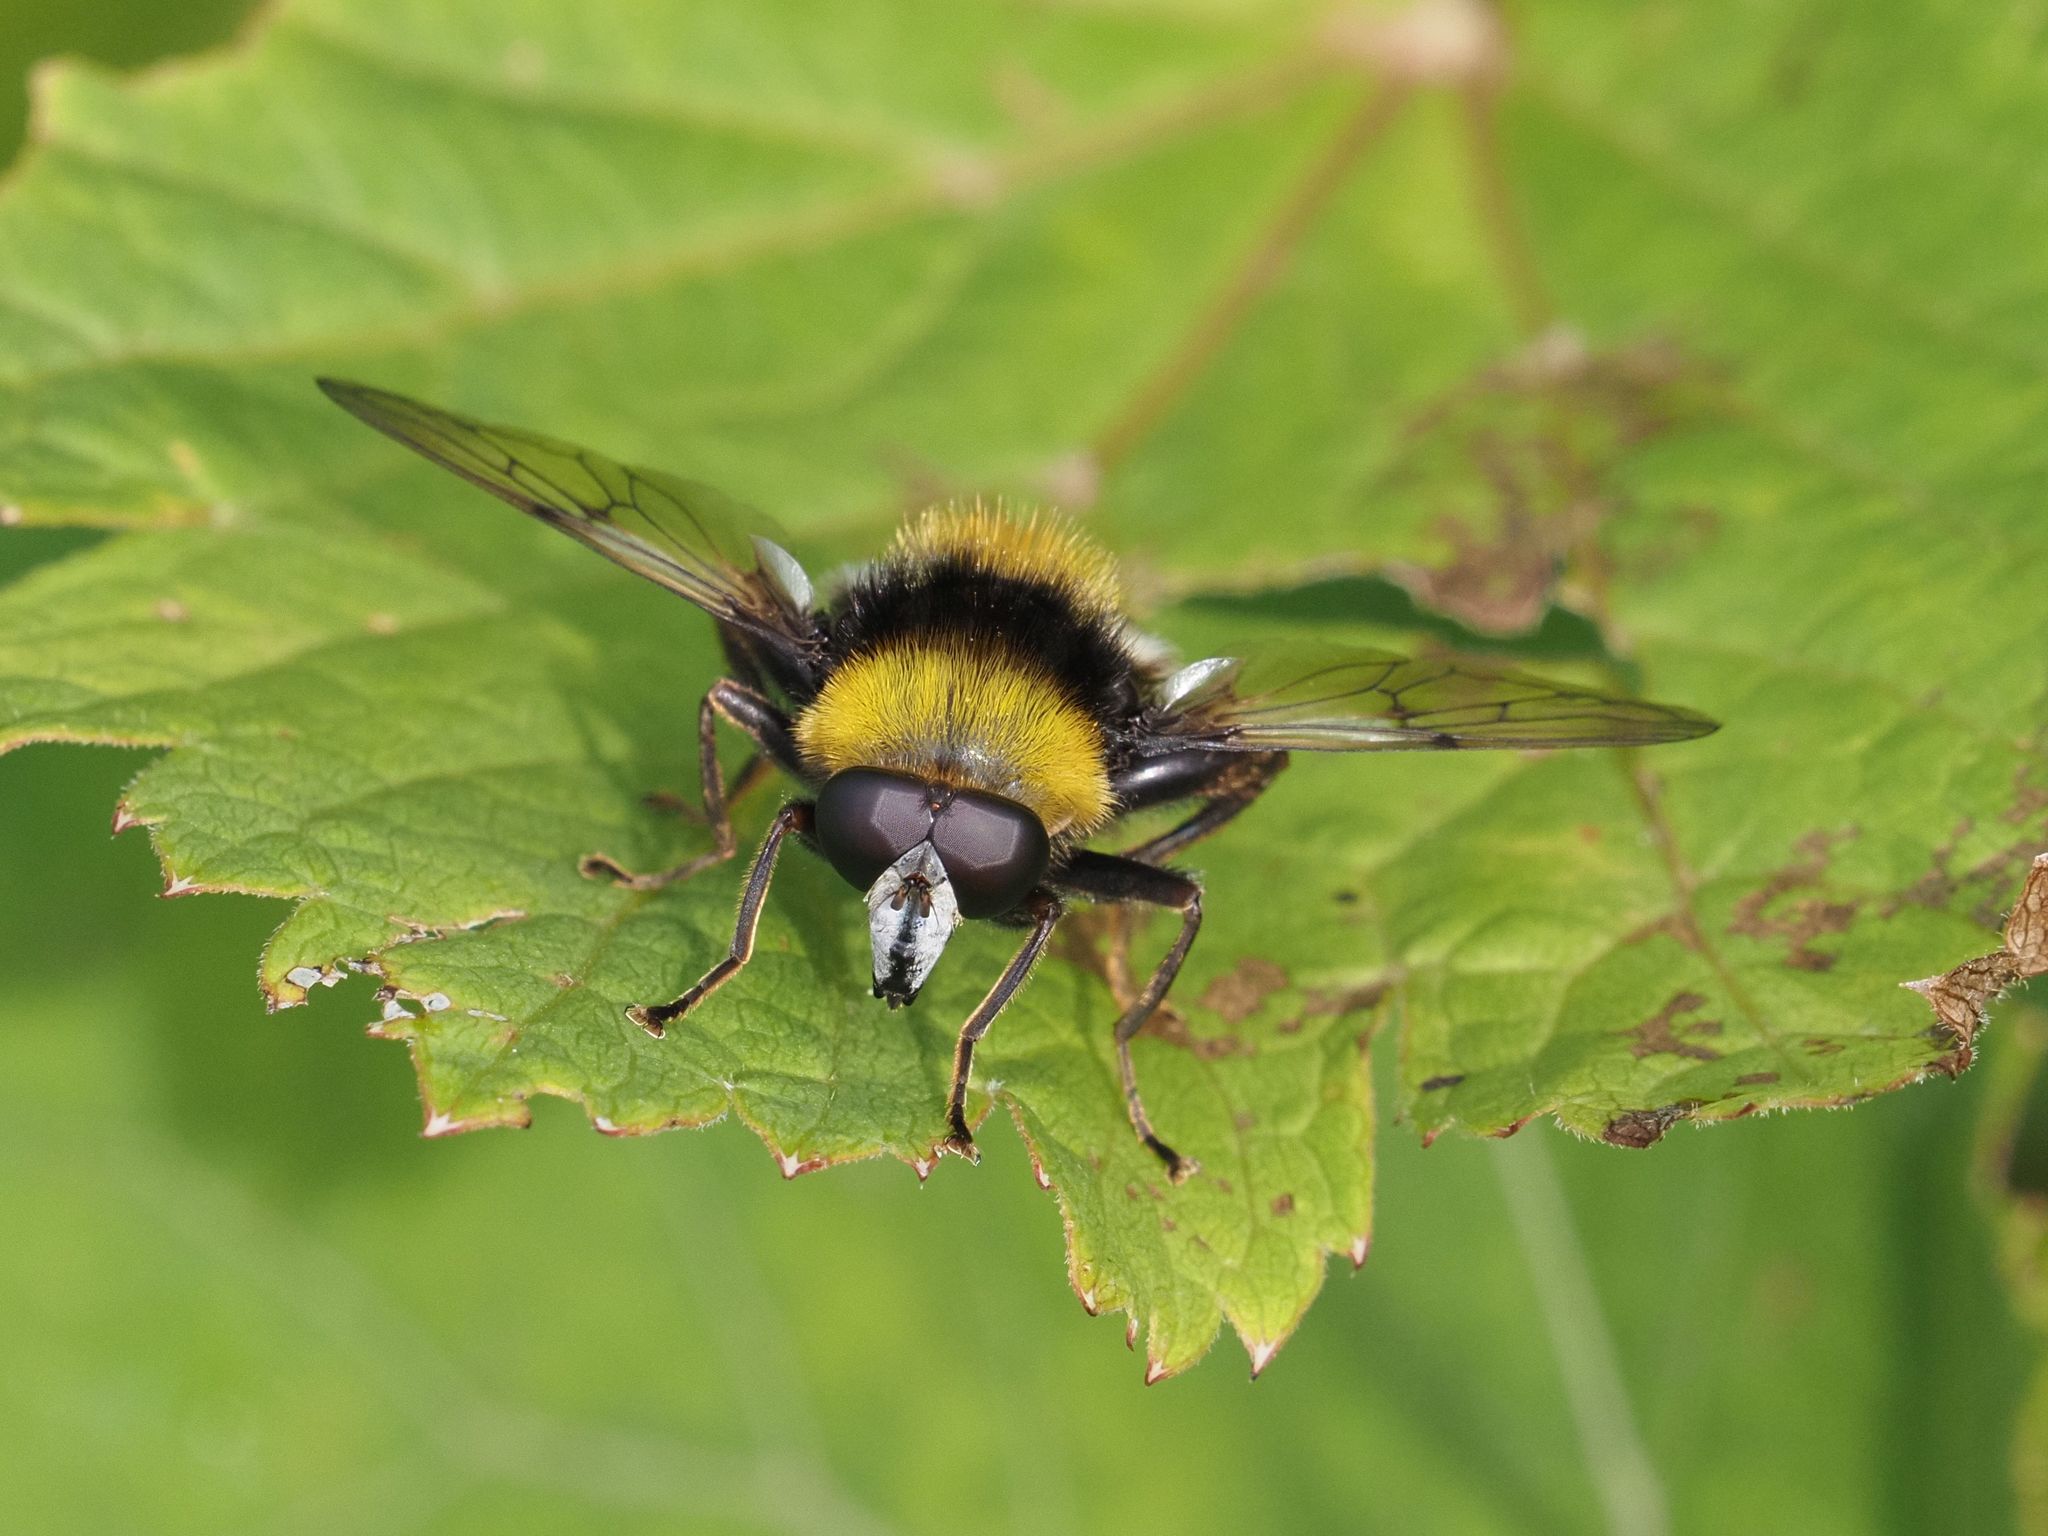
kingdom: Animalia
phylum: Arthropoda
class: Insecta
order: Diptera
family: Syrphidae
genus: Sericomyia
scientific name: Sericomyia bombiformis
